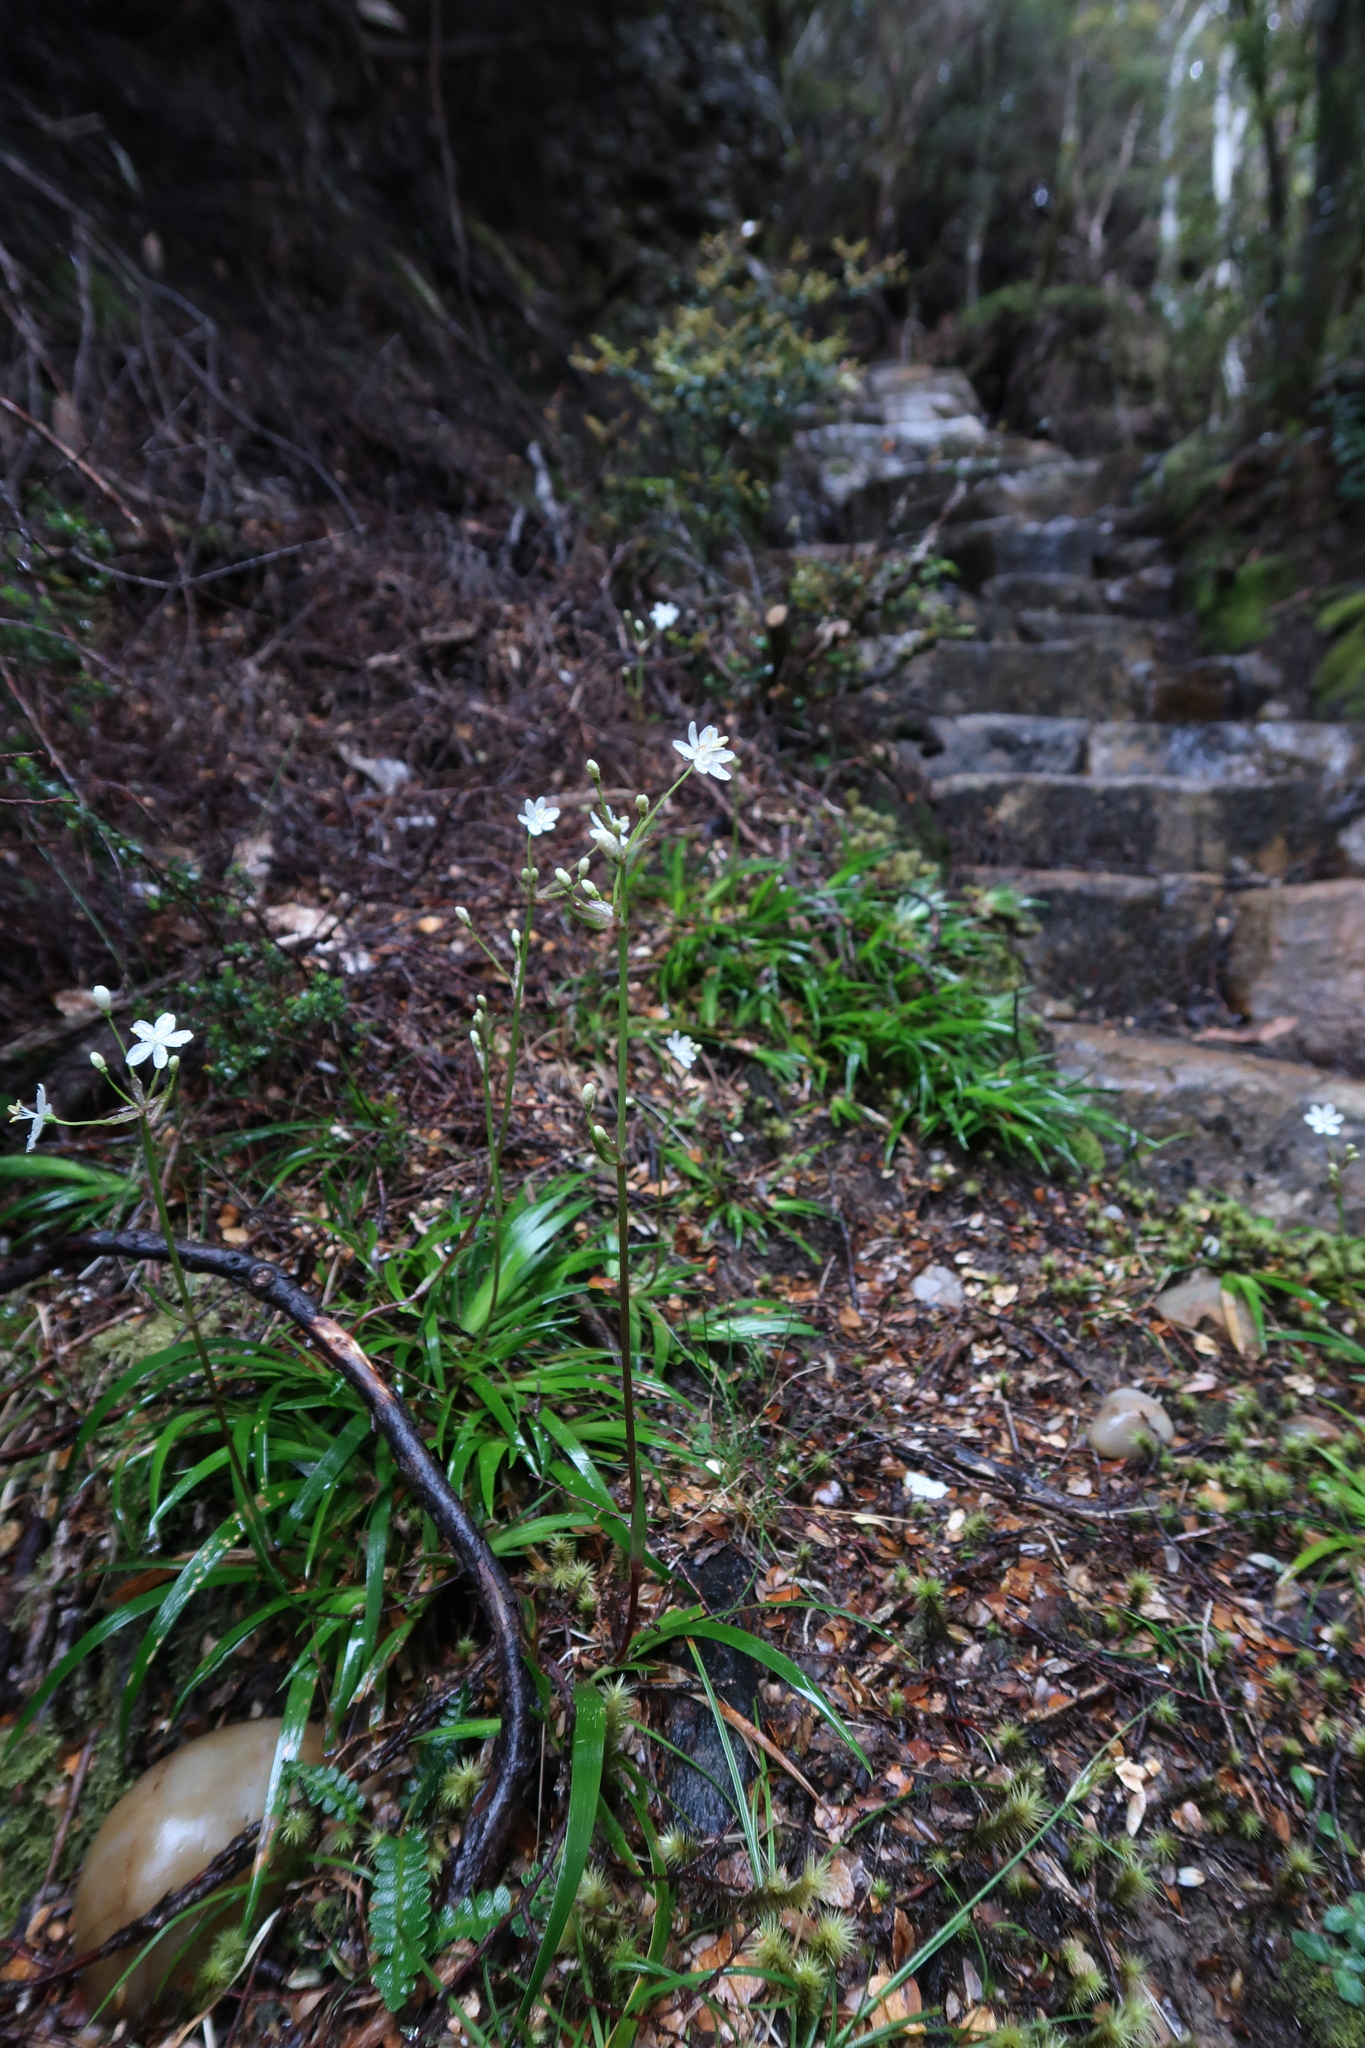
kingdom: Plantae
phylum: Tracheophyta
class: Liliopsida
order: Asparagales
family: Iridaceae
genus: Libertia
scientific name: Libertia pulchella
